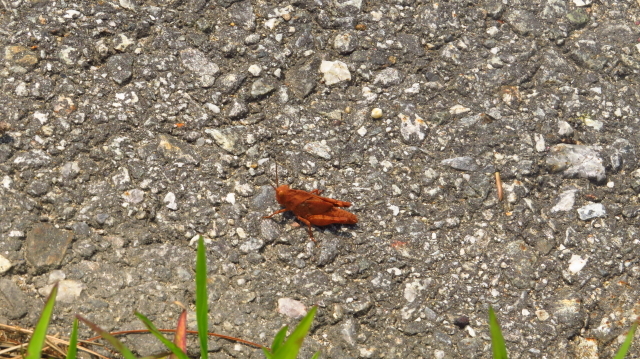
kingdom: Animalia
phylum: Arthropoda
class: Insecta
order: Orthoptera
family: Acrididae
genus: Dissosteira
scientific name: Dissosteira carolina
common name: Carolina grasshopper
